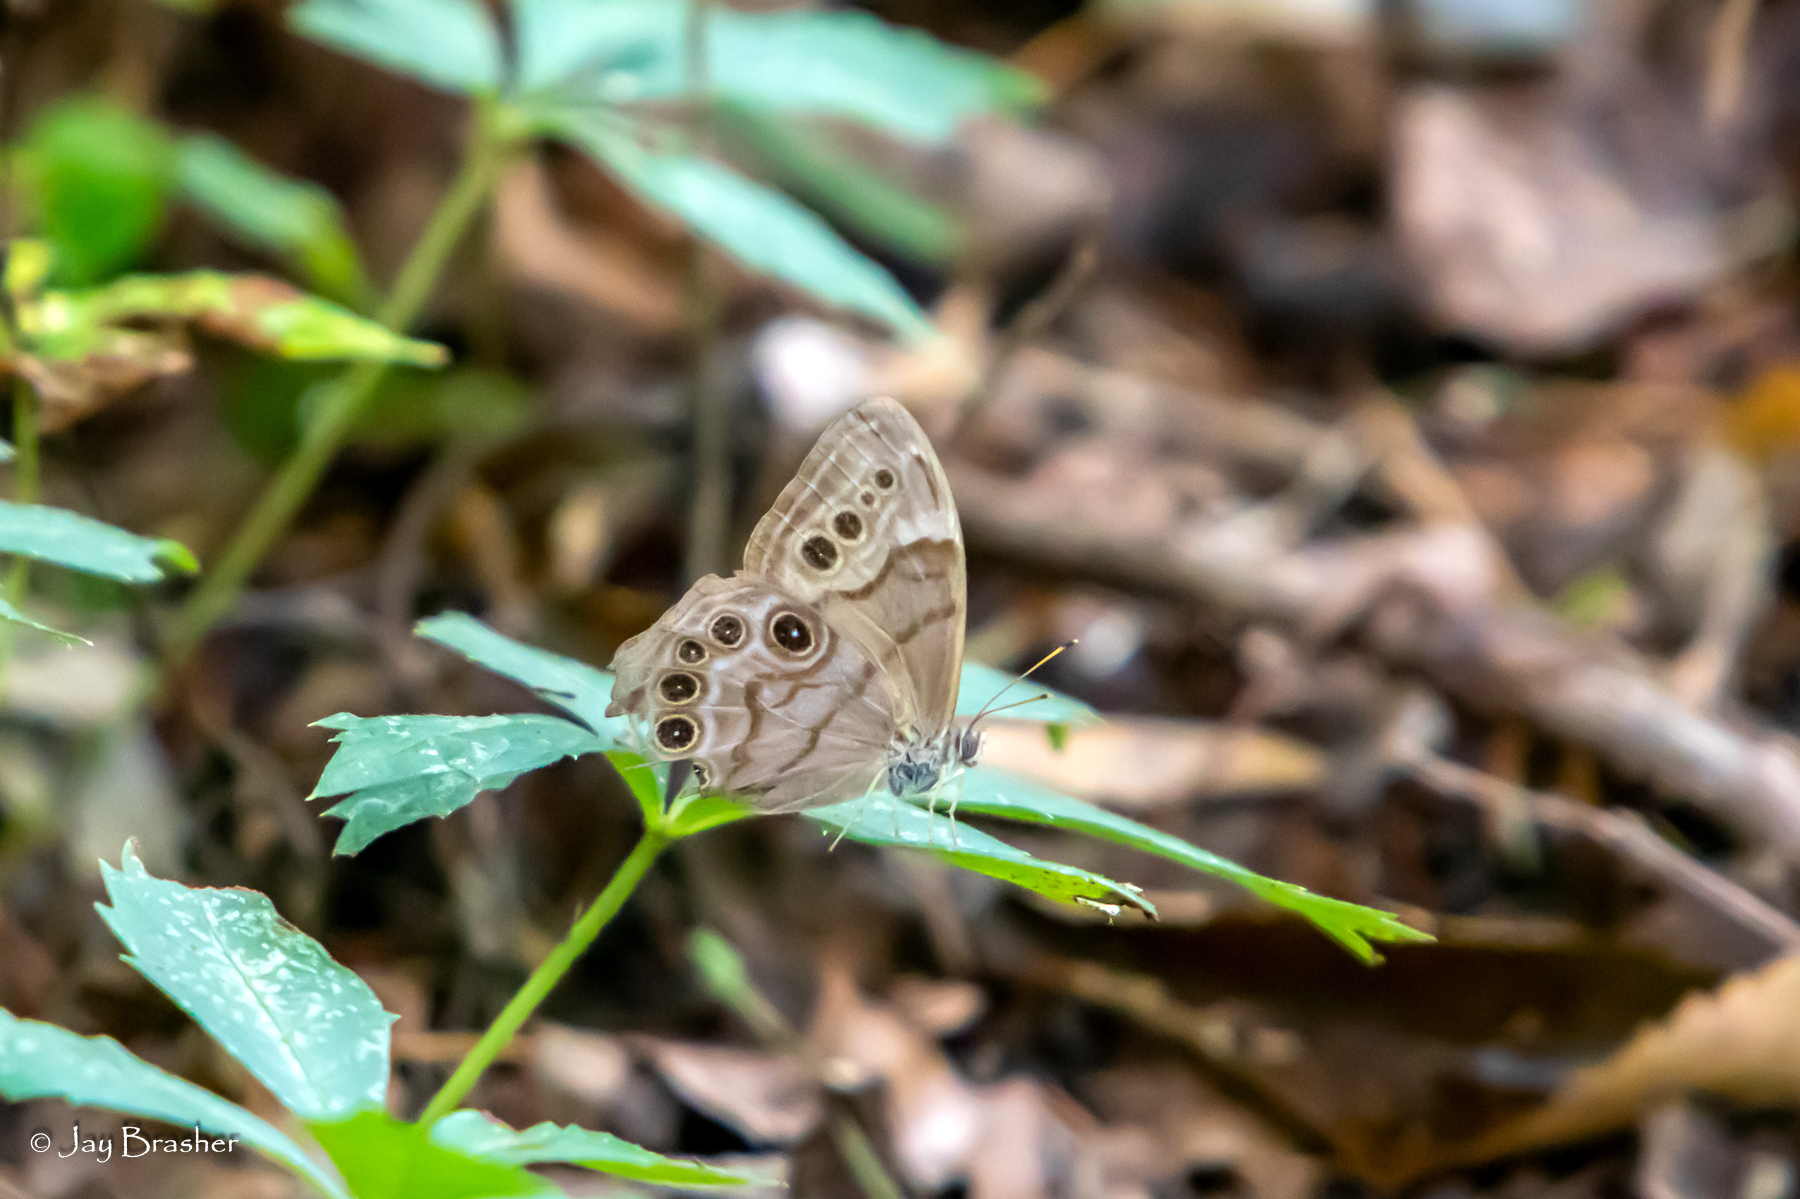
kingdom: Animalia
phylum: Arthropoda
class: Insecta
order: Lepidoptera
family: Nymphalidae
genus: Lethe
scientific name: Lethe anthedon
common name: Northern pearly-eye
